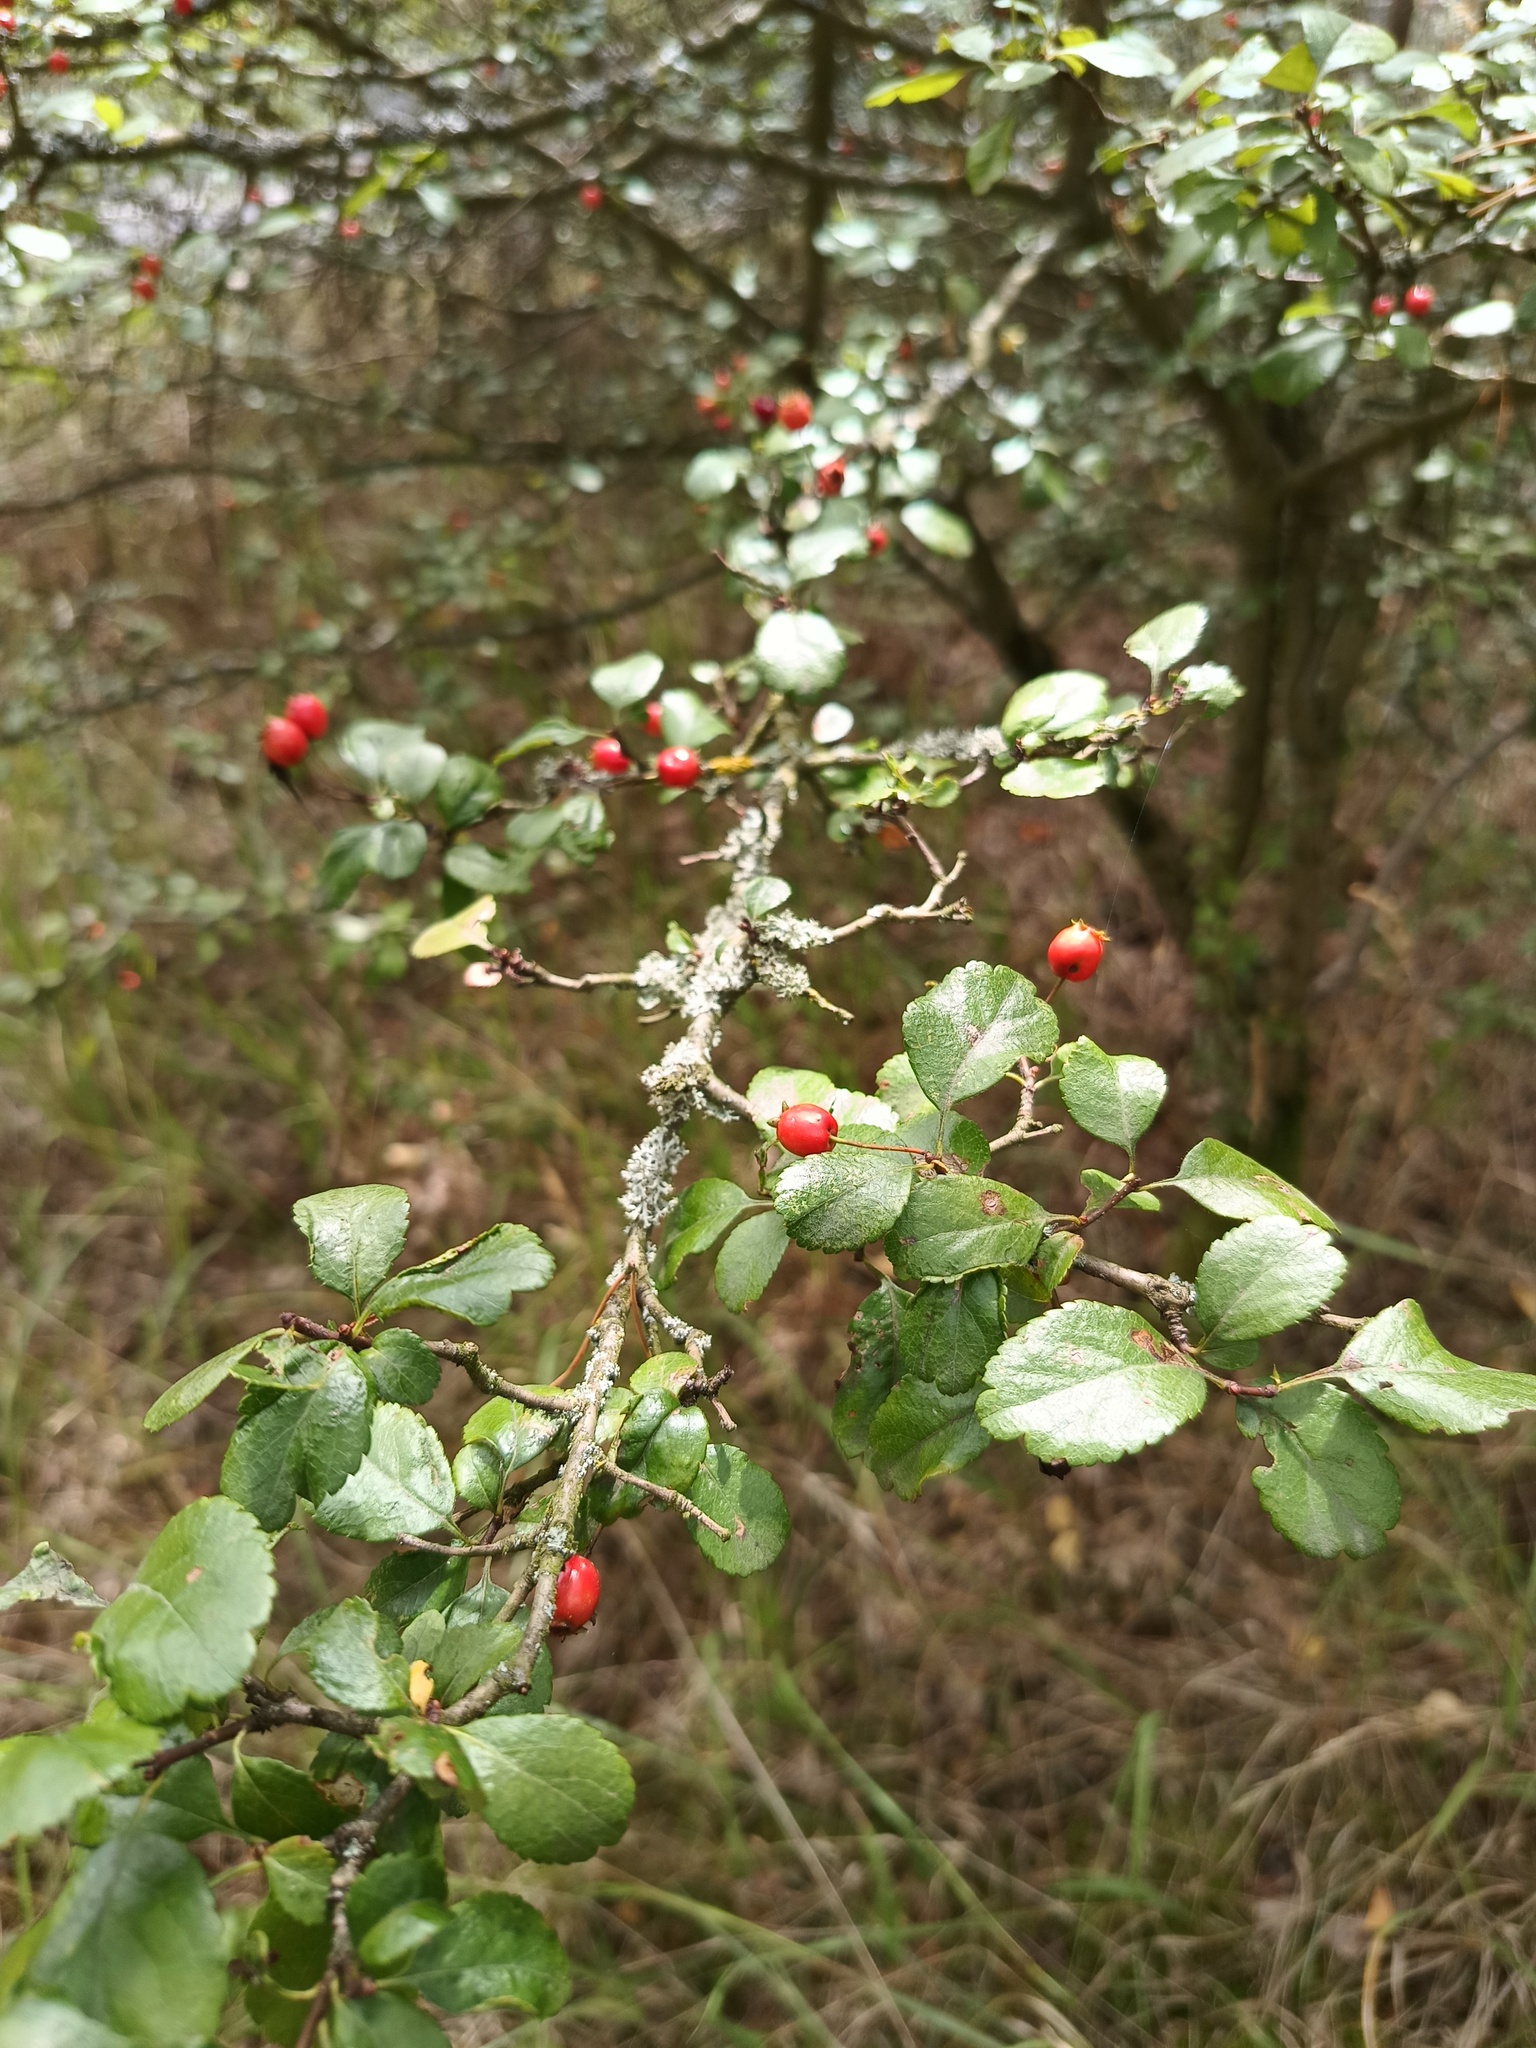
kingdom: Plantae
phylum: Tracheophyta
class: Magnoliopsida
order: Rosales
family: Rosaceae
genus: Crataegus
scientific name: Crataegus laevigata
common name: Midland hawthorn
